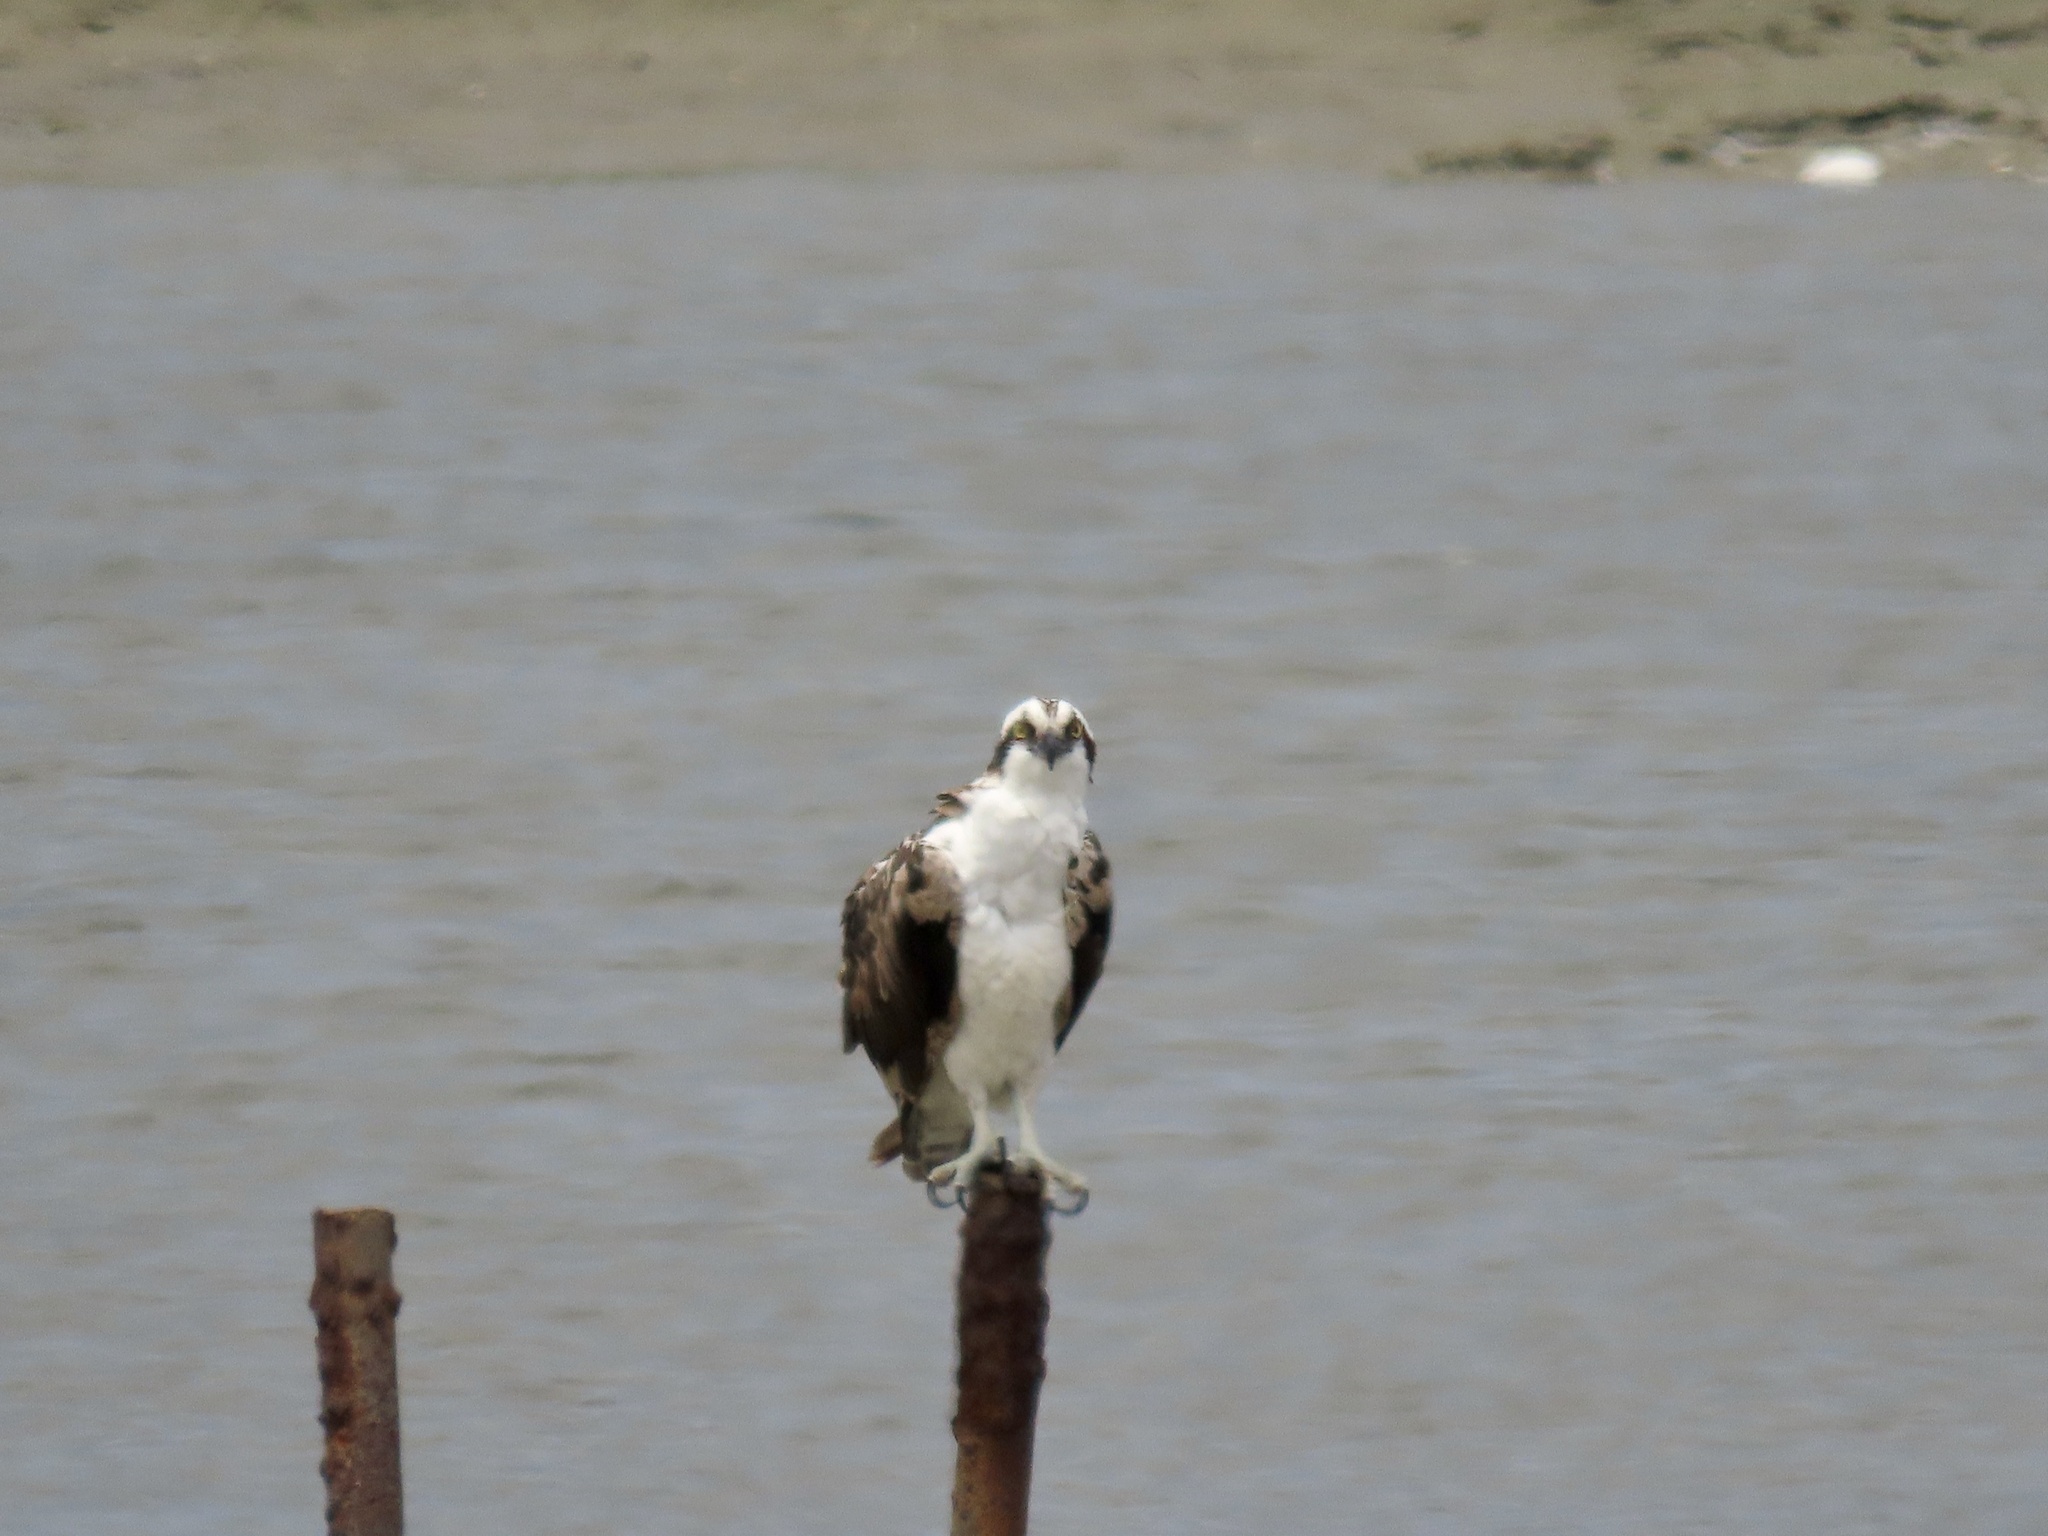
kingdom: Animalia
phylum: Chordata
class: Aves
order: Accipitriformes
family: Pandionidae
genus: Pandion
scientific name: Pandion haliaetus
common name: Osprey
